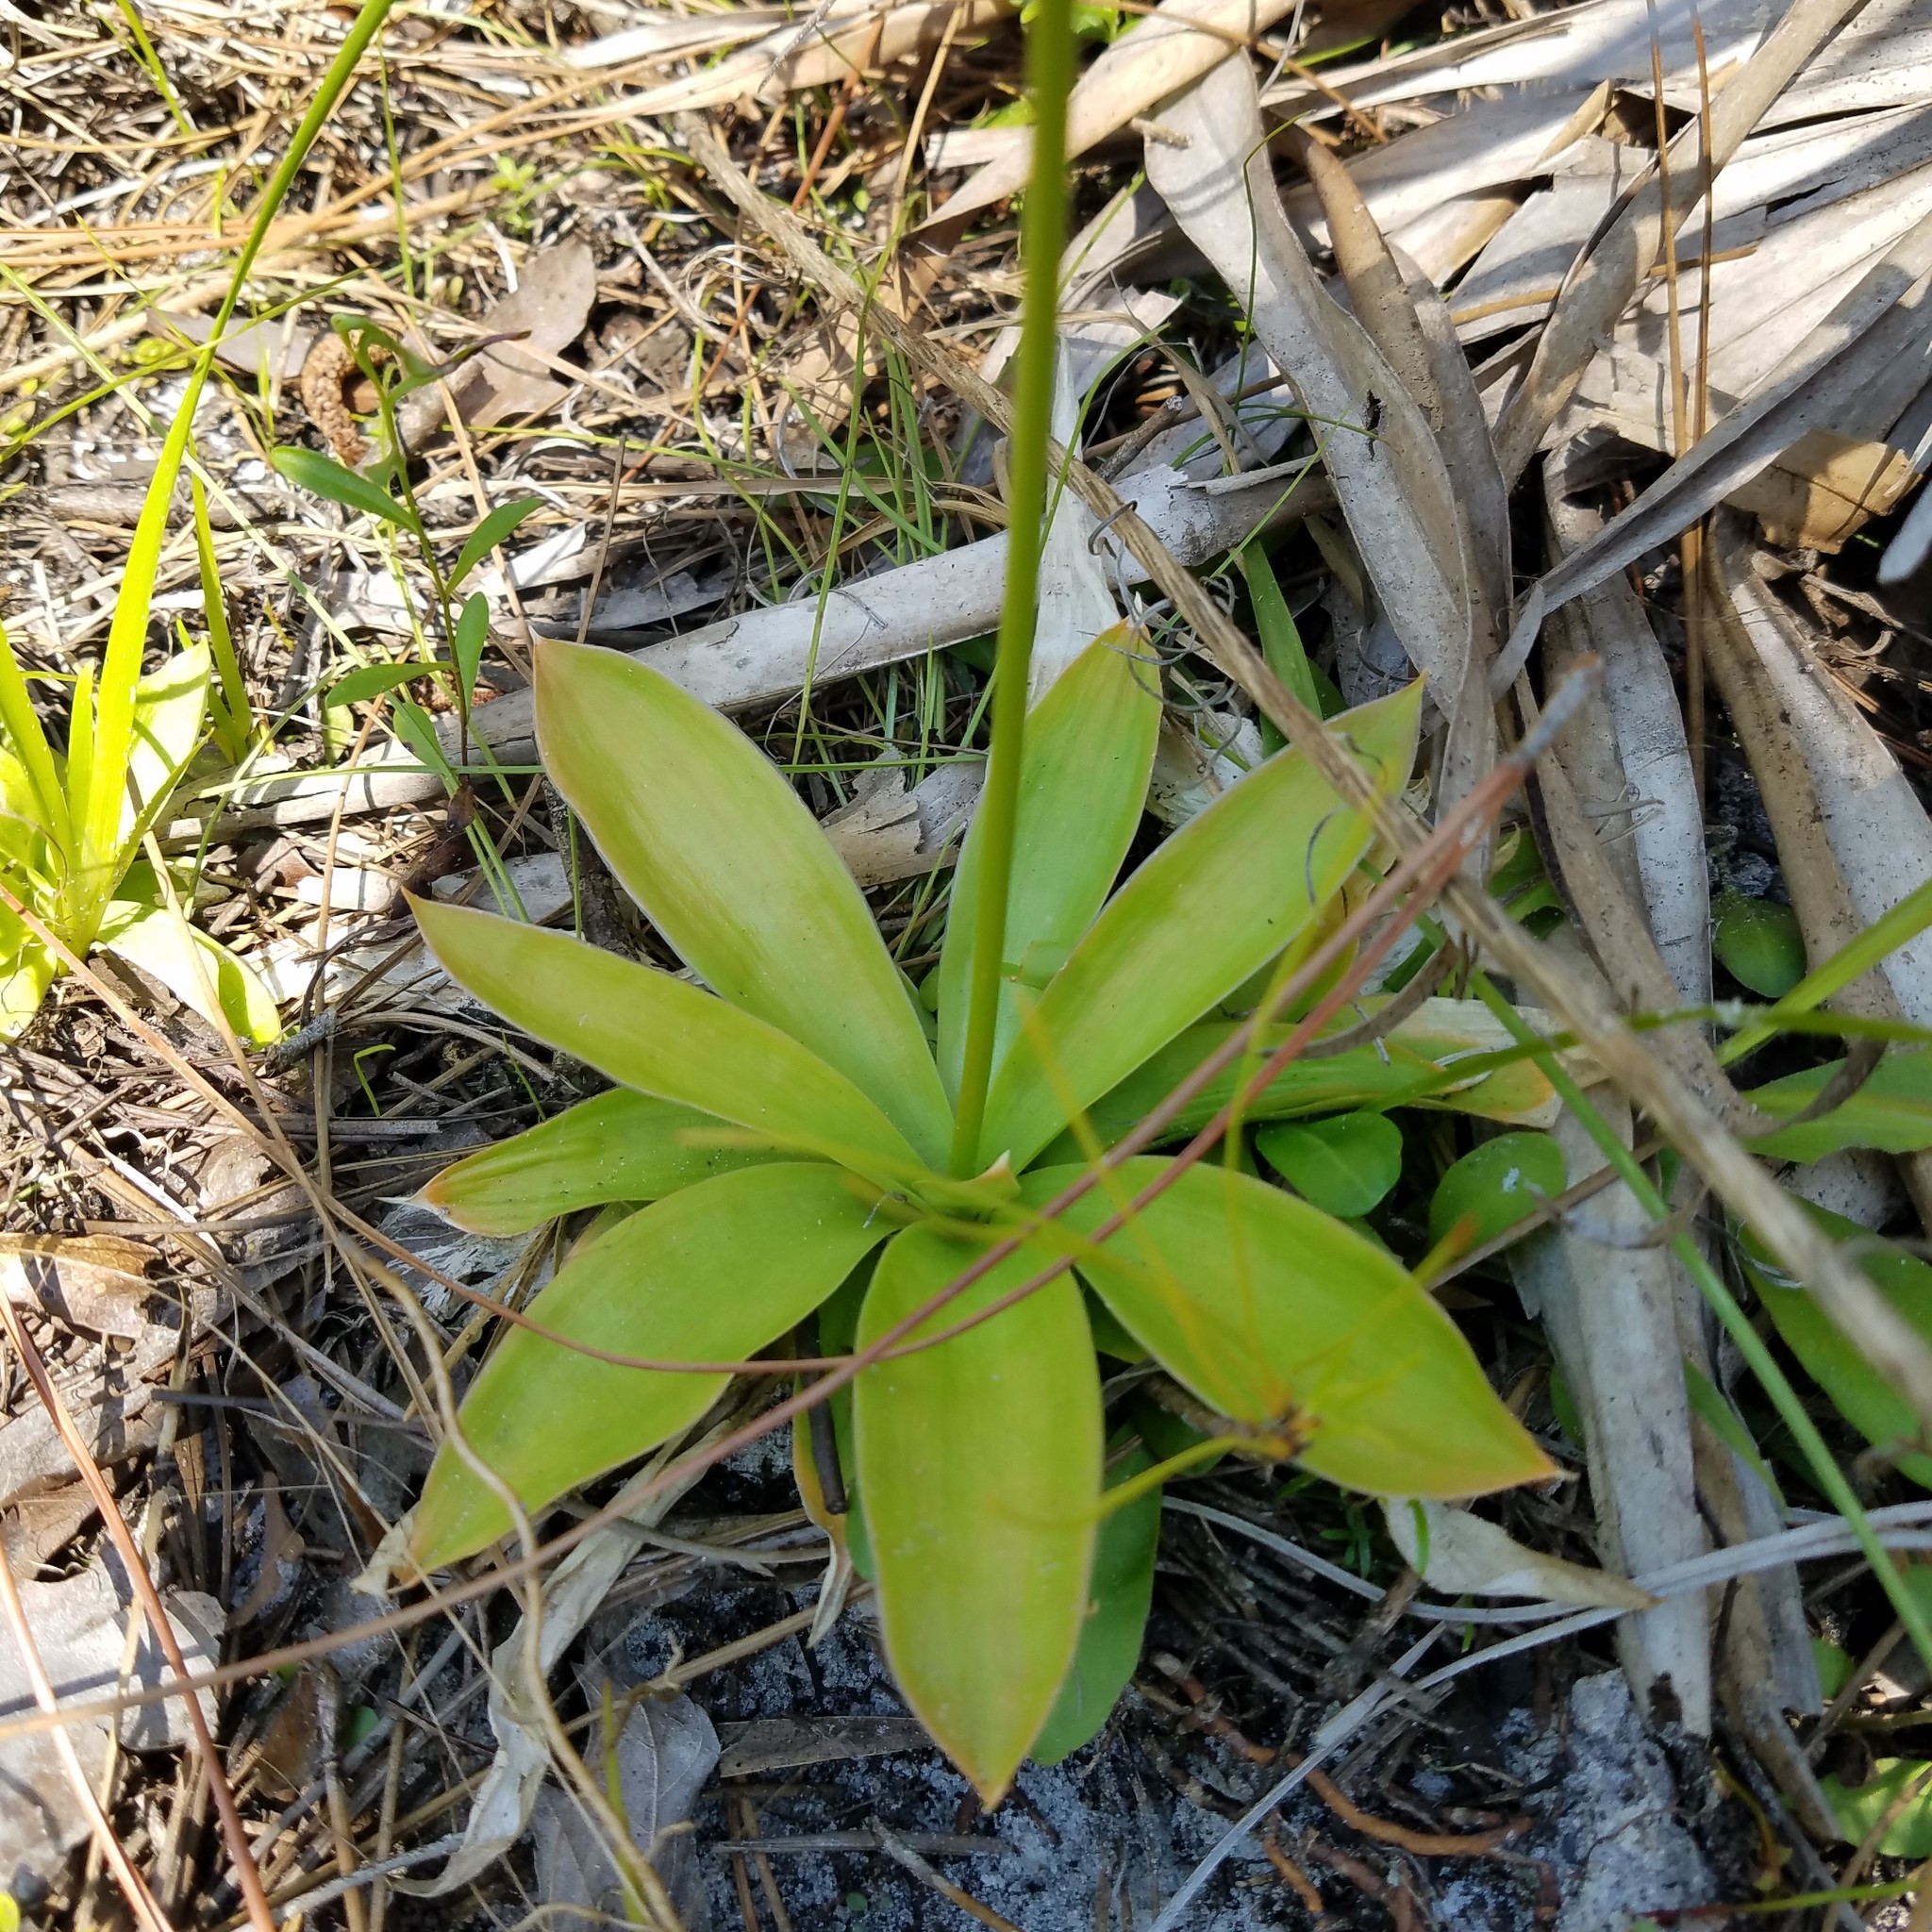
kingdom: Plantae
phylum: Tracheophyta
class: Liliopsida
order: Dioscoreales
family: Nartheciaceae
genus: Aletris
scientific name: Aletris lutea
